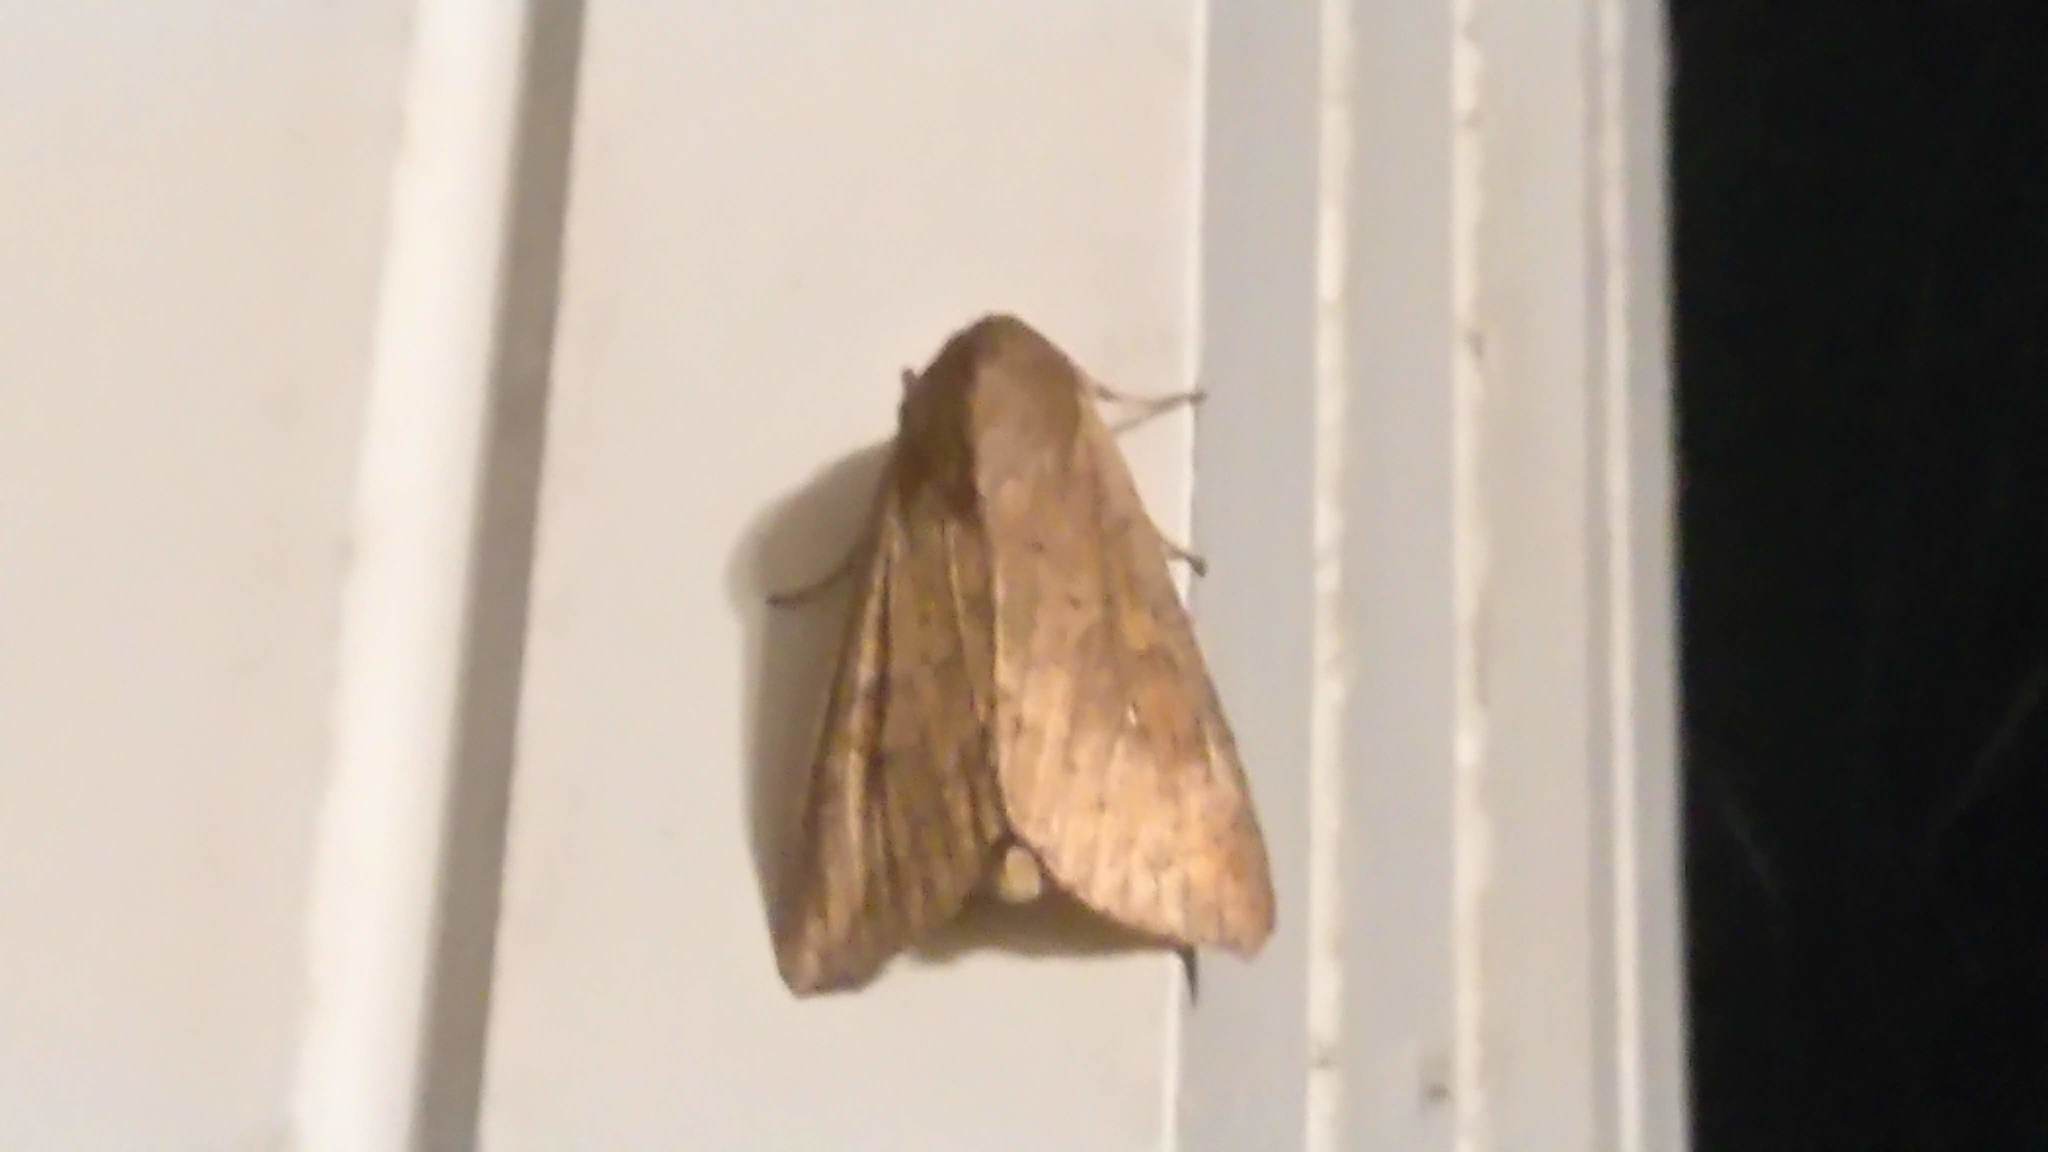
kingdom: Animalia
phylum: Arthropoda
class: Insecta
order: Lepidoptera
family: Noctuidae
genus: Mythimna
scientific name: Mythimna unipuncta
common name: White-speck
